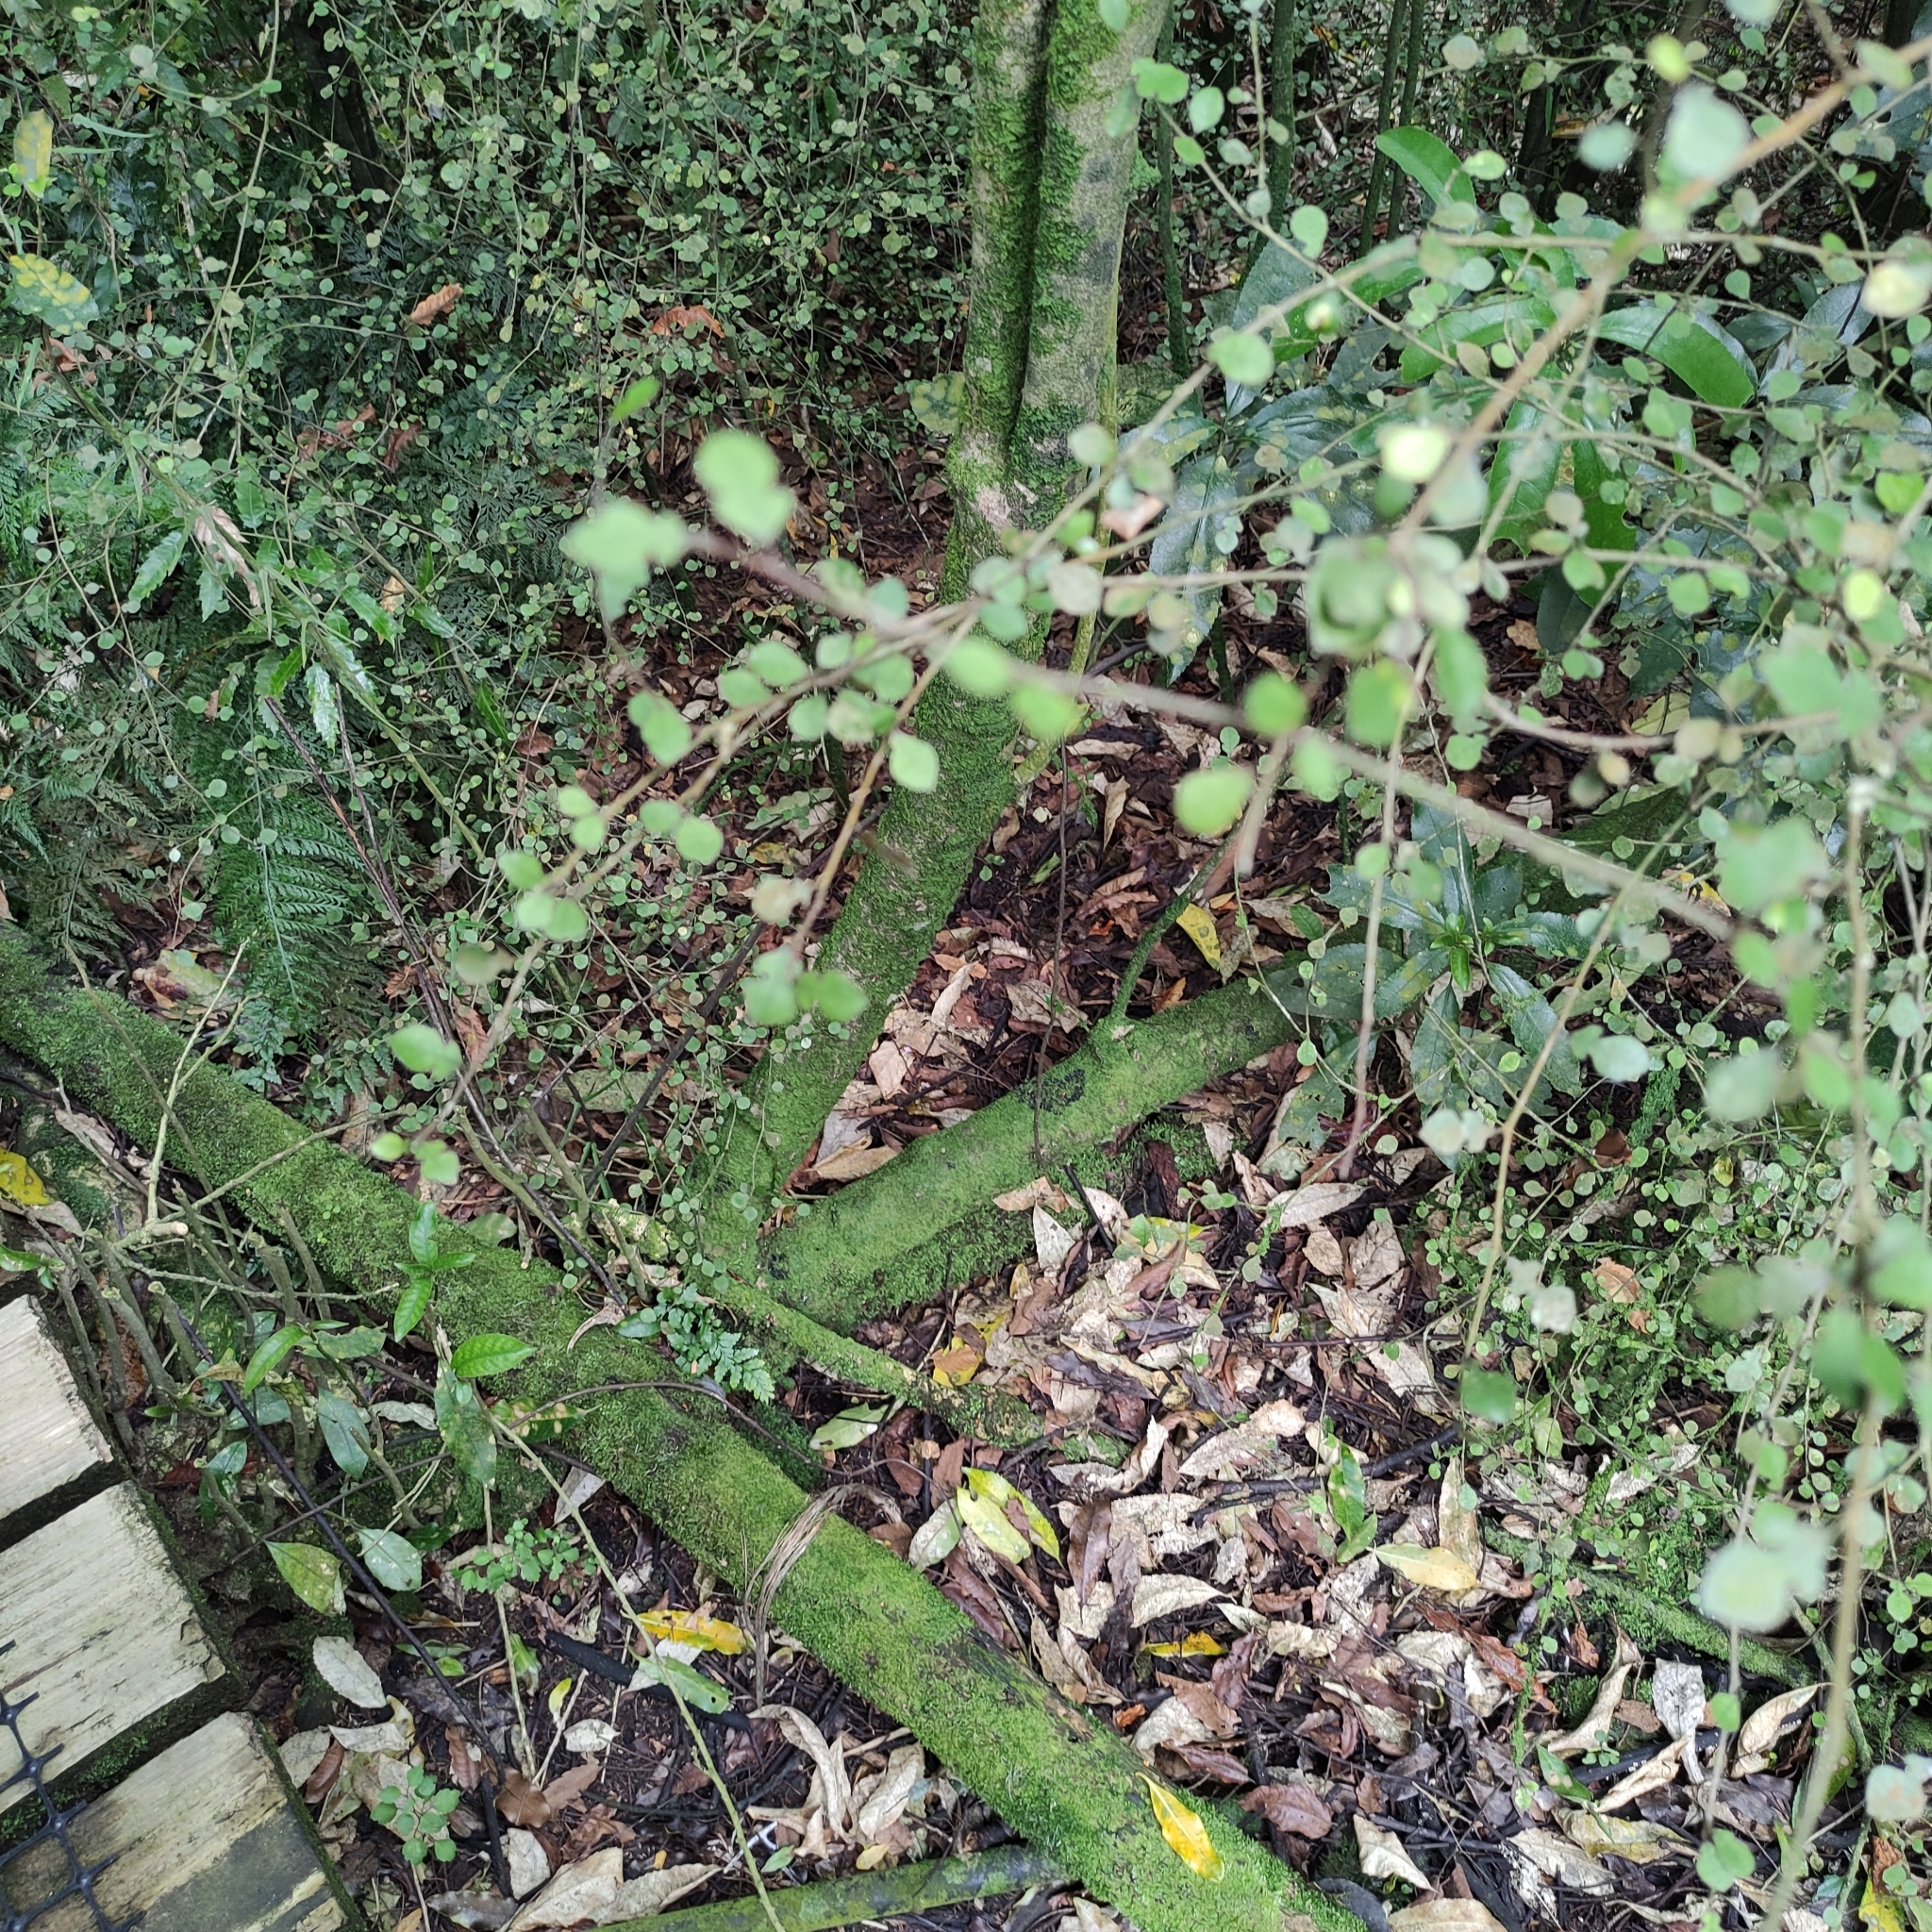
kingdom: Plantae
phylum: Tracheophyta
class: Magnoliopsida
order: Rosales
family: Moraceae
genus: Paratrophis
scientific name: Paratrophis microphylla
